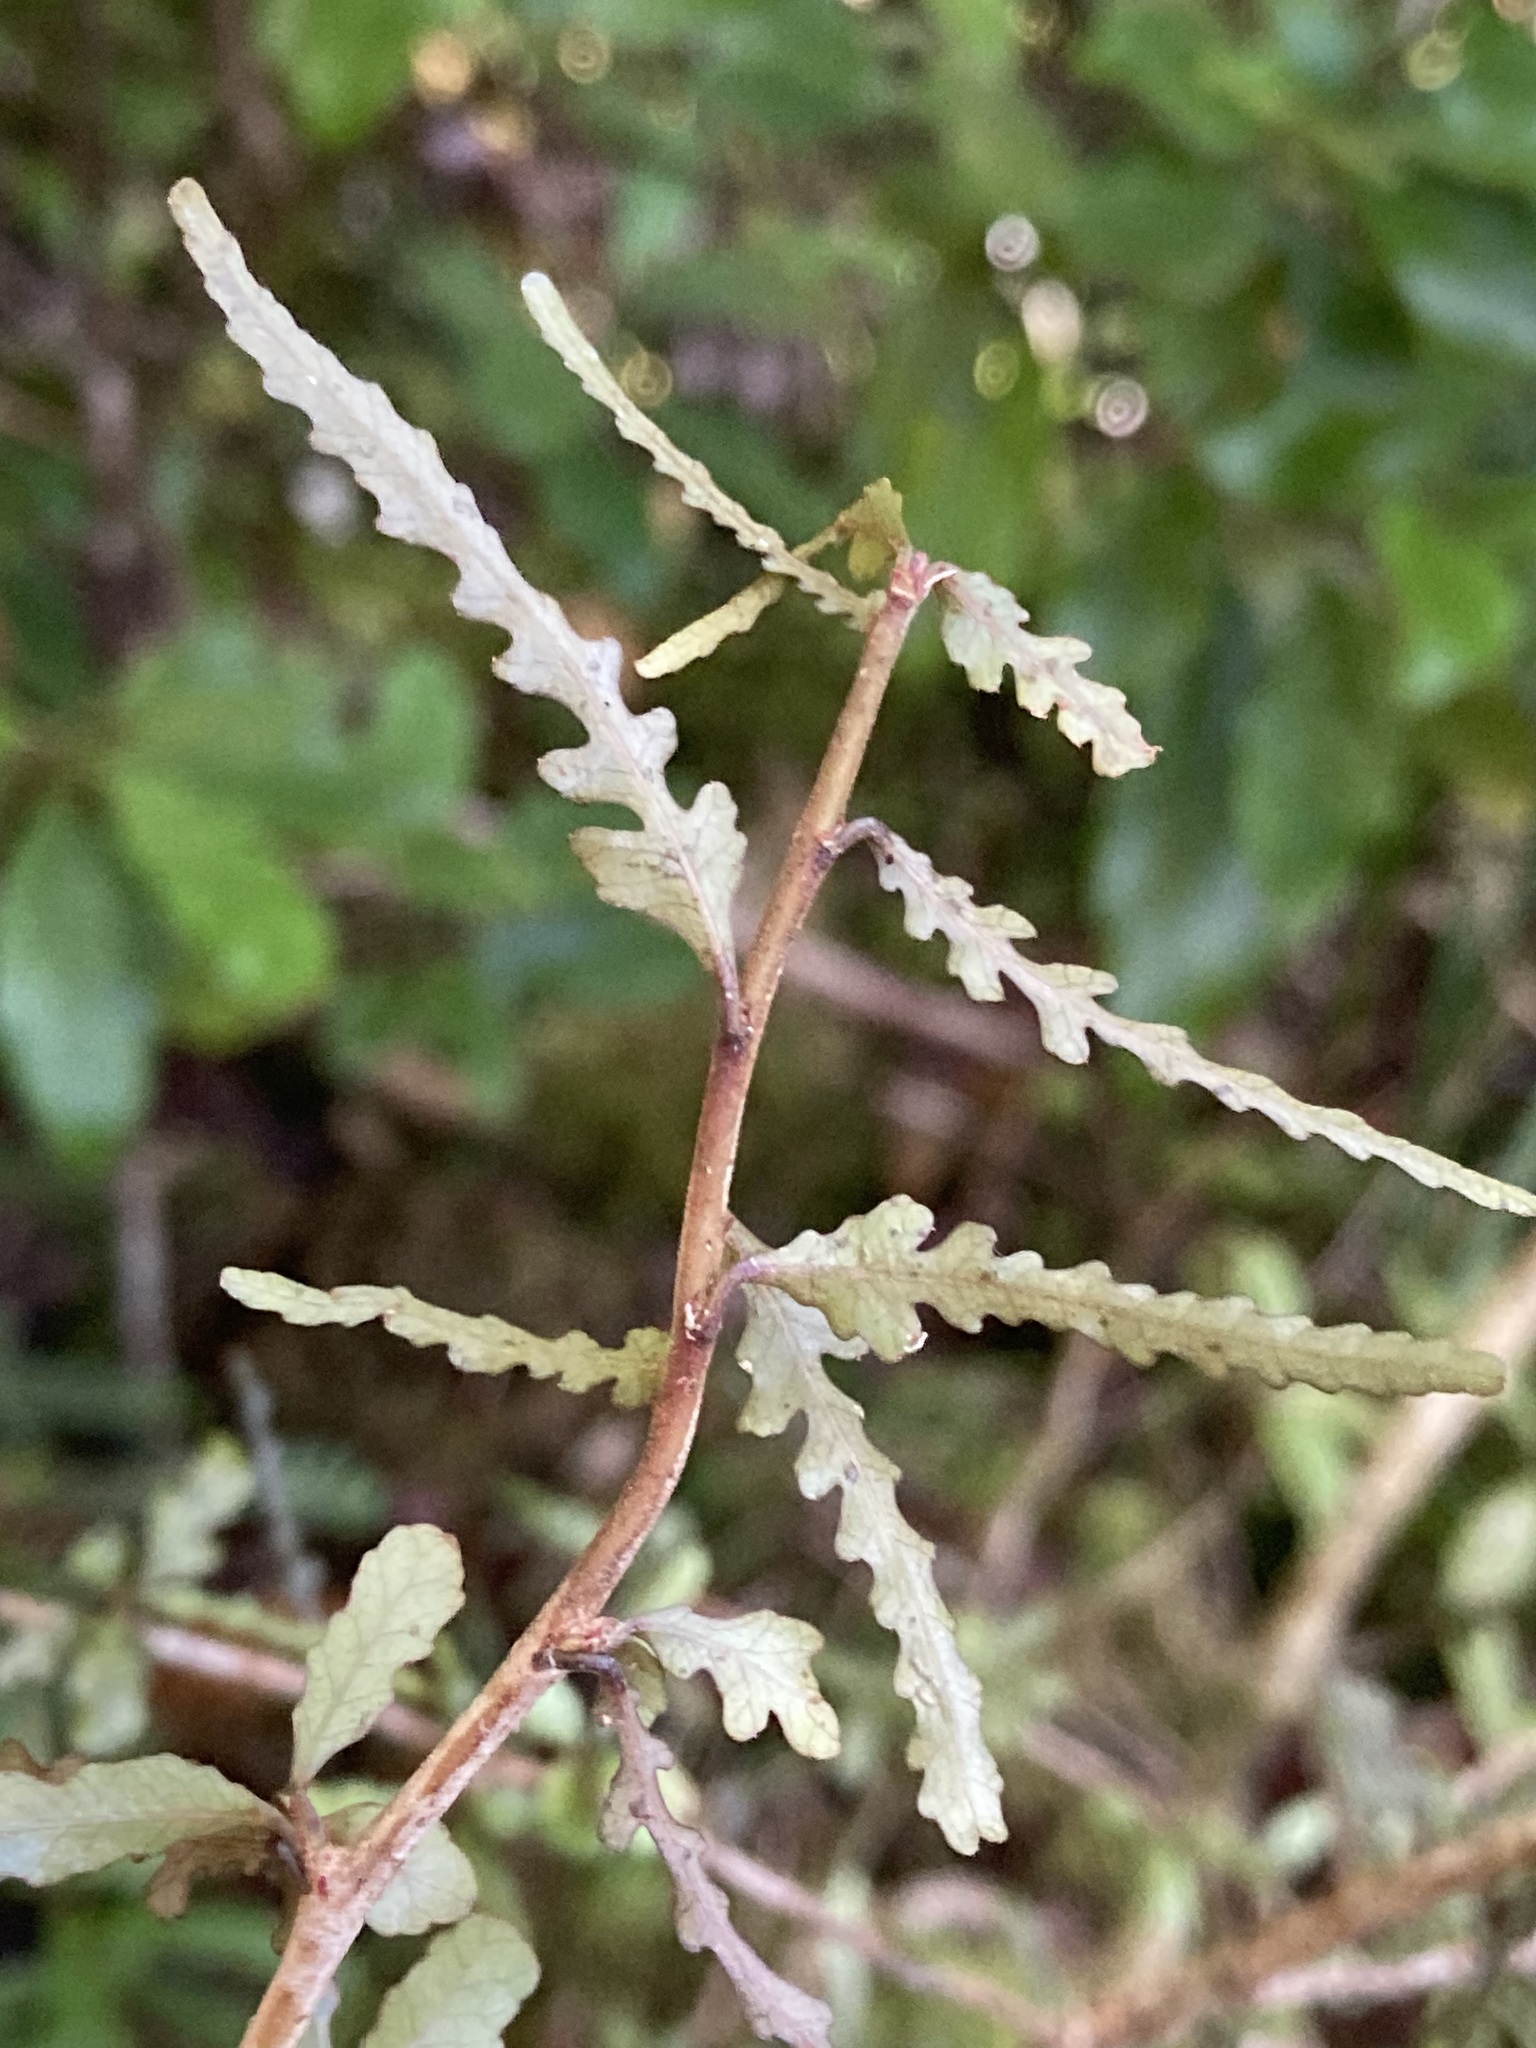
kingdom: Plantae
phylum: Tracheophyta
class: Magnoliopsida
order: Oxalidales
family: Elaeocarpaceae
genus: Elaeocarpus
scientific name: Elaeocarpus hookerianus
